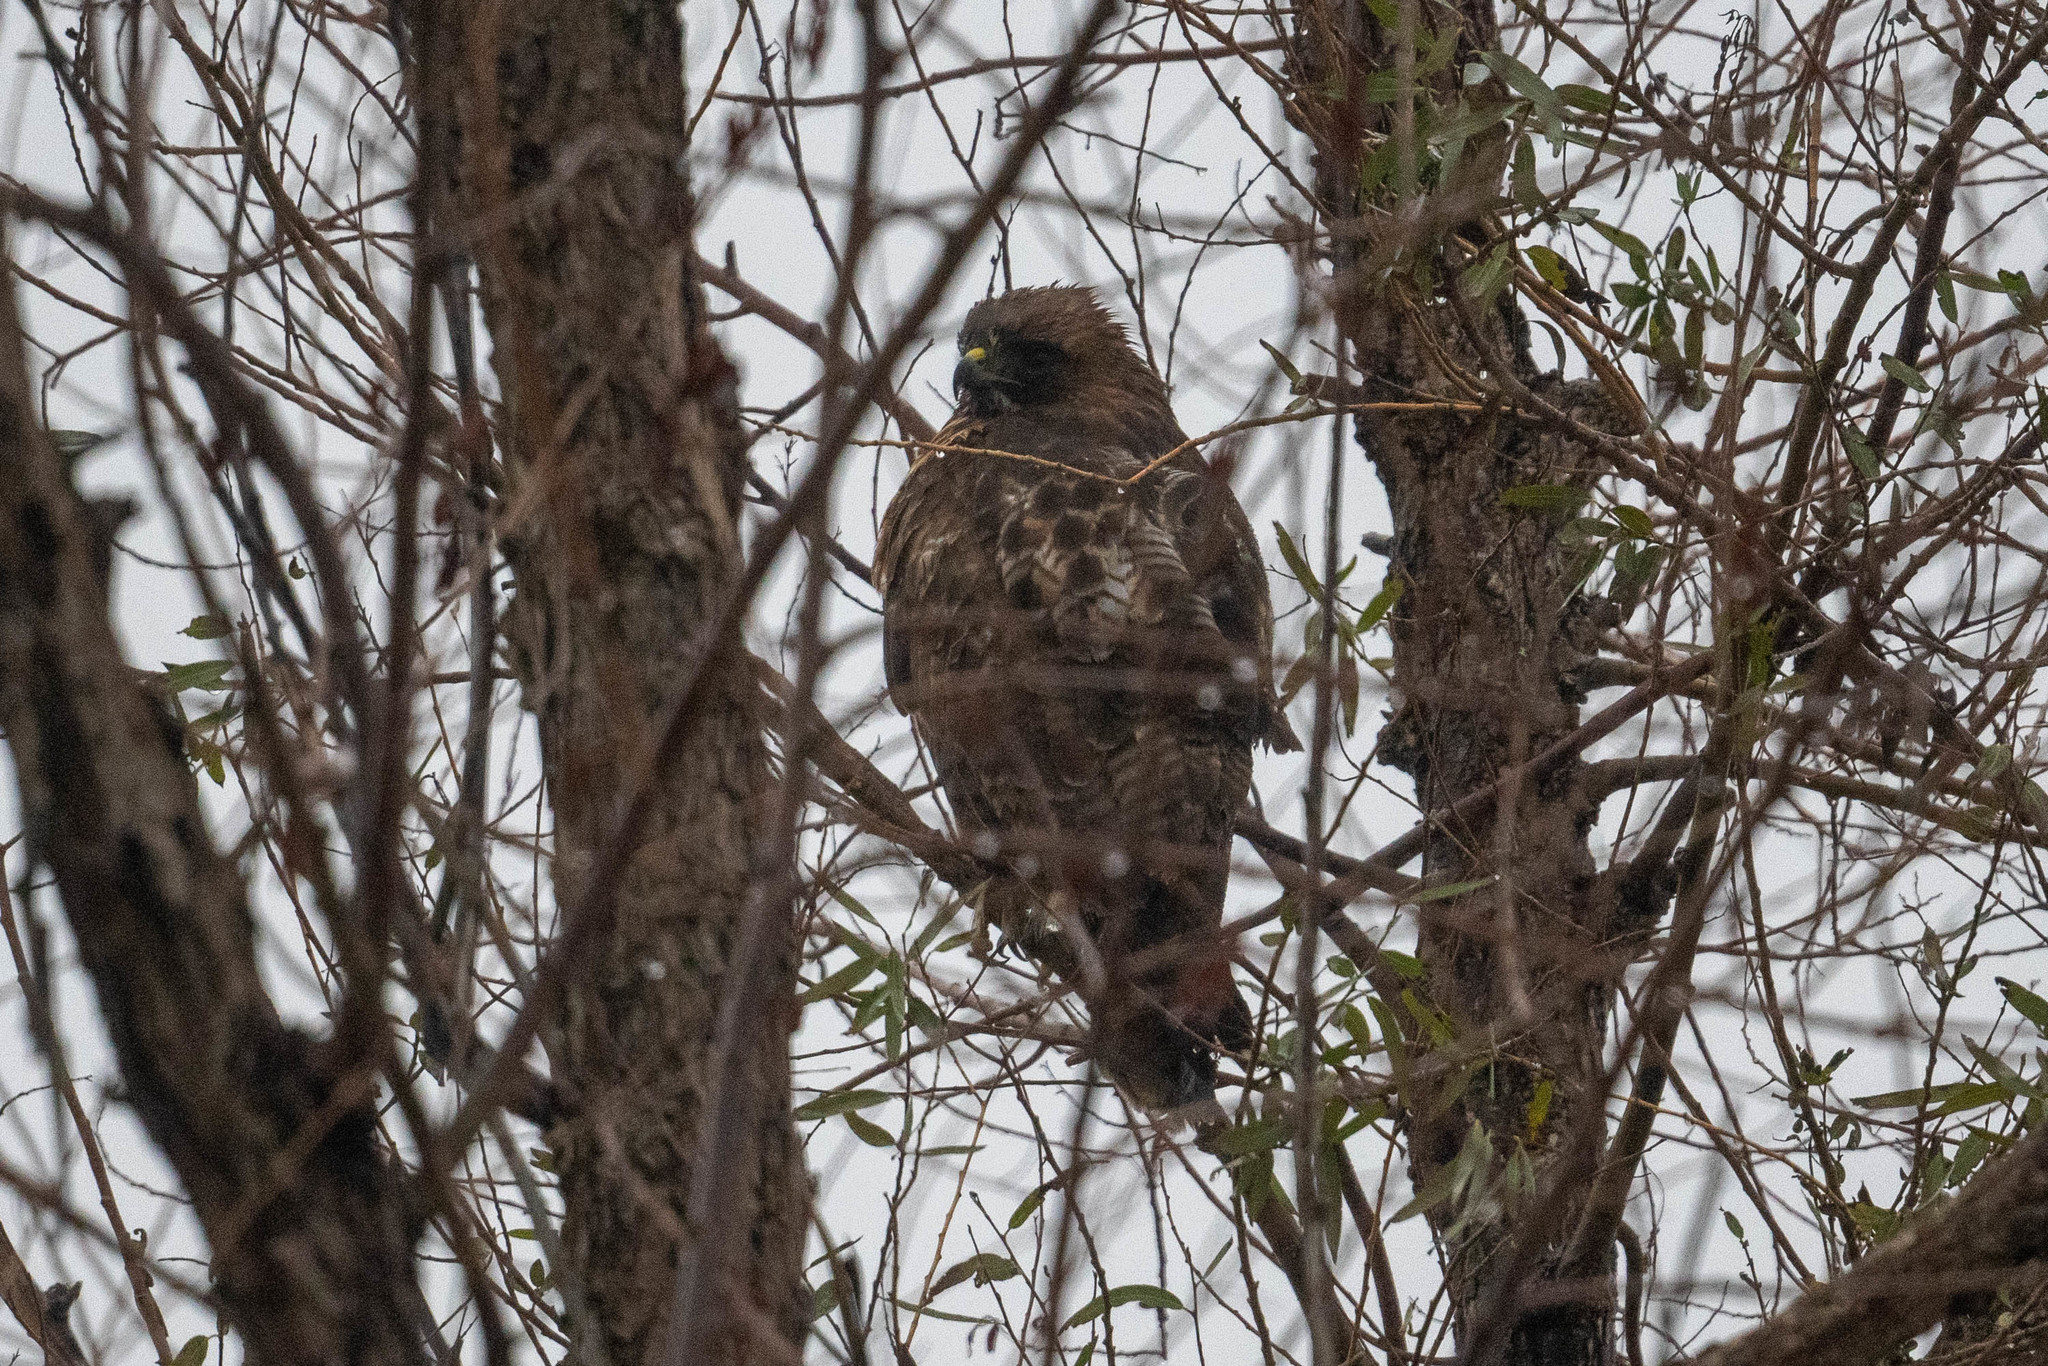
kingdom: Animalia
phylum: Chordata
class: Aves
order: Accipitriformes
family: Accipitridae
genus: Buteo
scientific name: Buteo jamaicensis
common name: Red-tailed hawk
